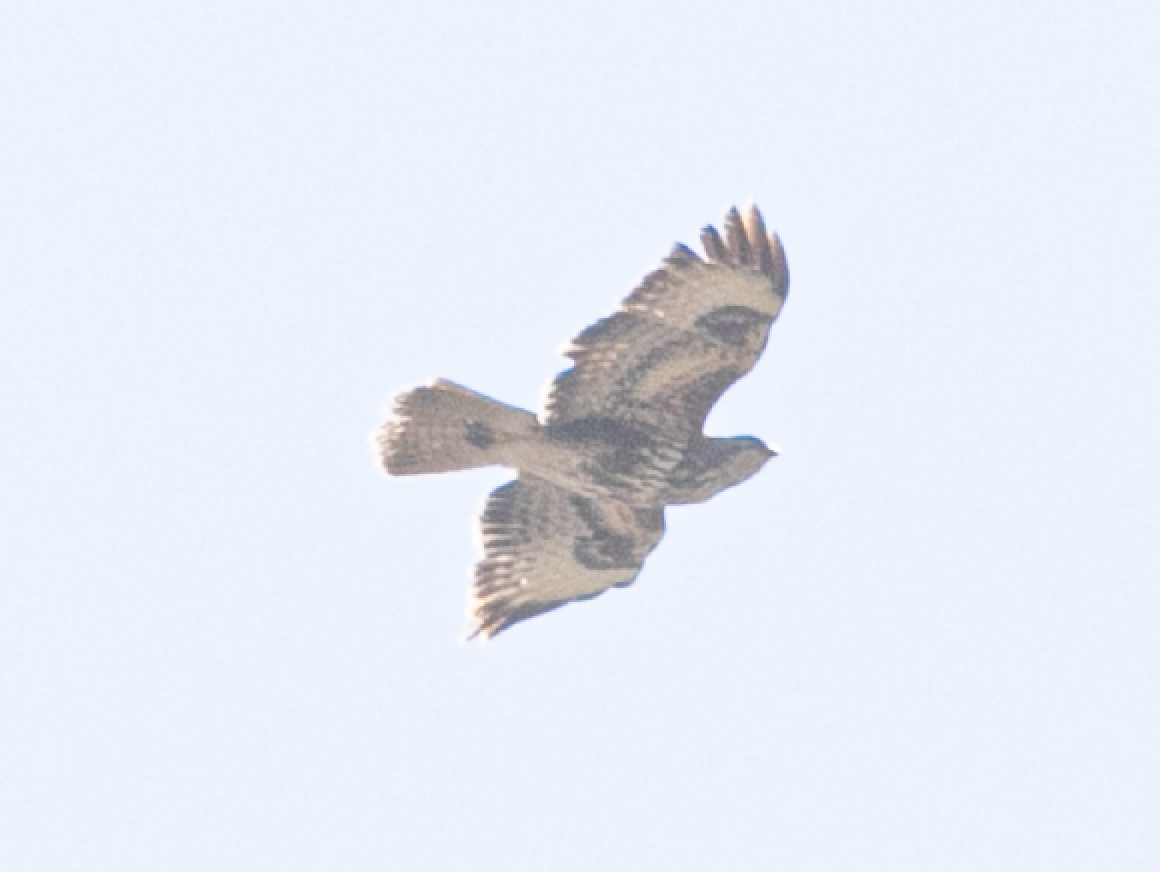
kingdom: Animalia
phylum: Chordata
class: Aves
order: Accipitriformes
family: Accipitridae
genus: Buteo
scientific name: Buteo buteo
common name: Common buzzard
